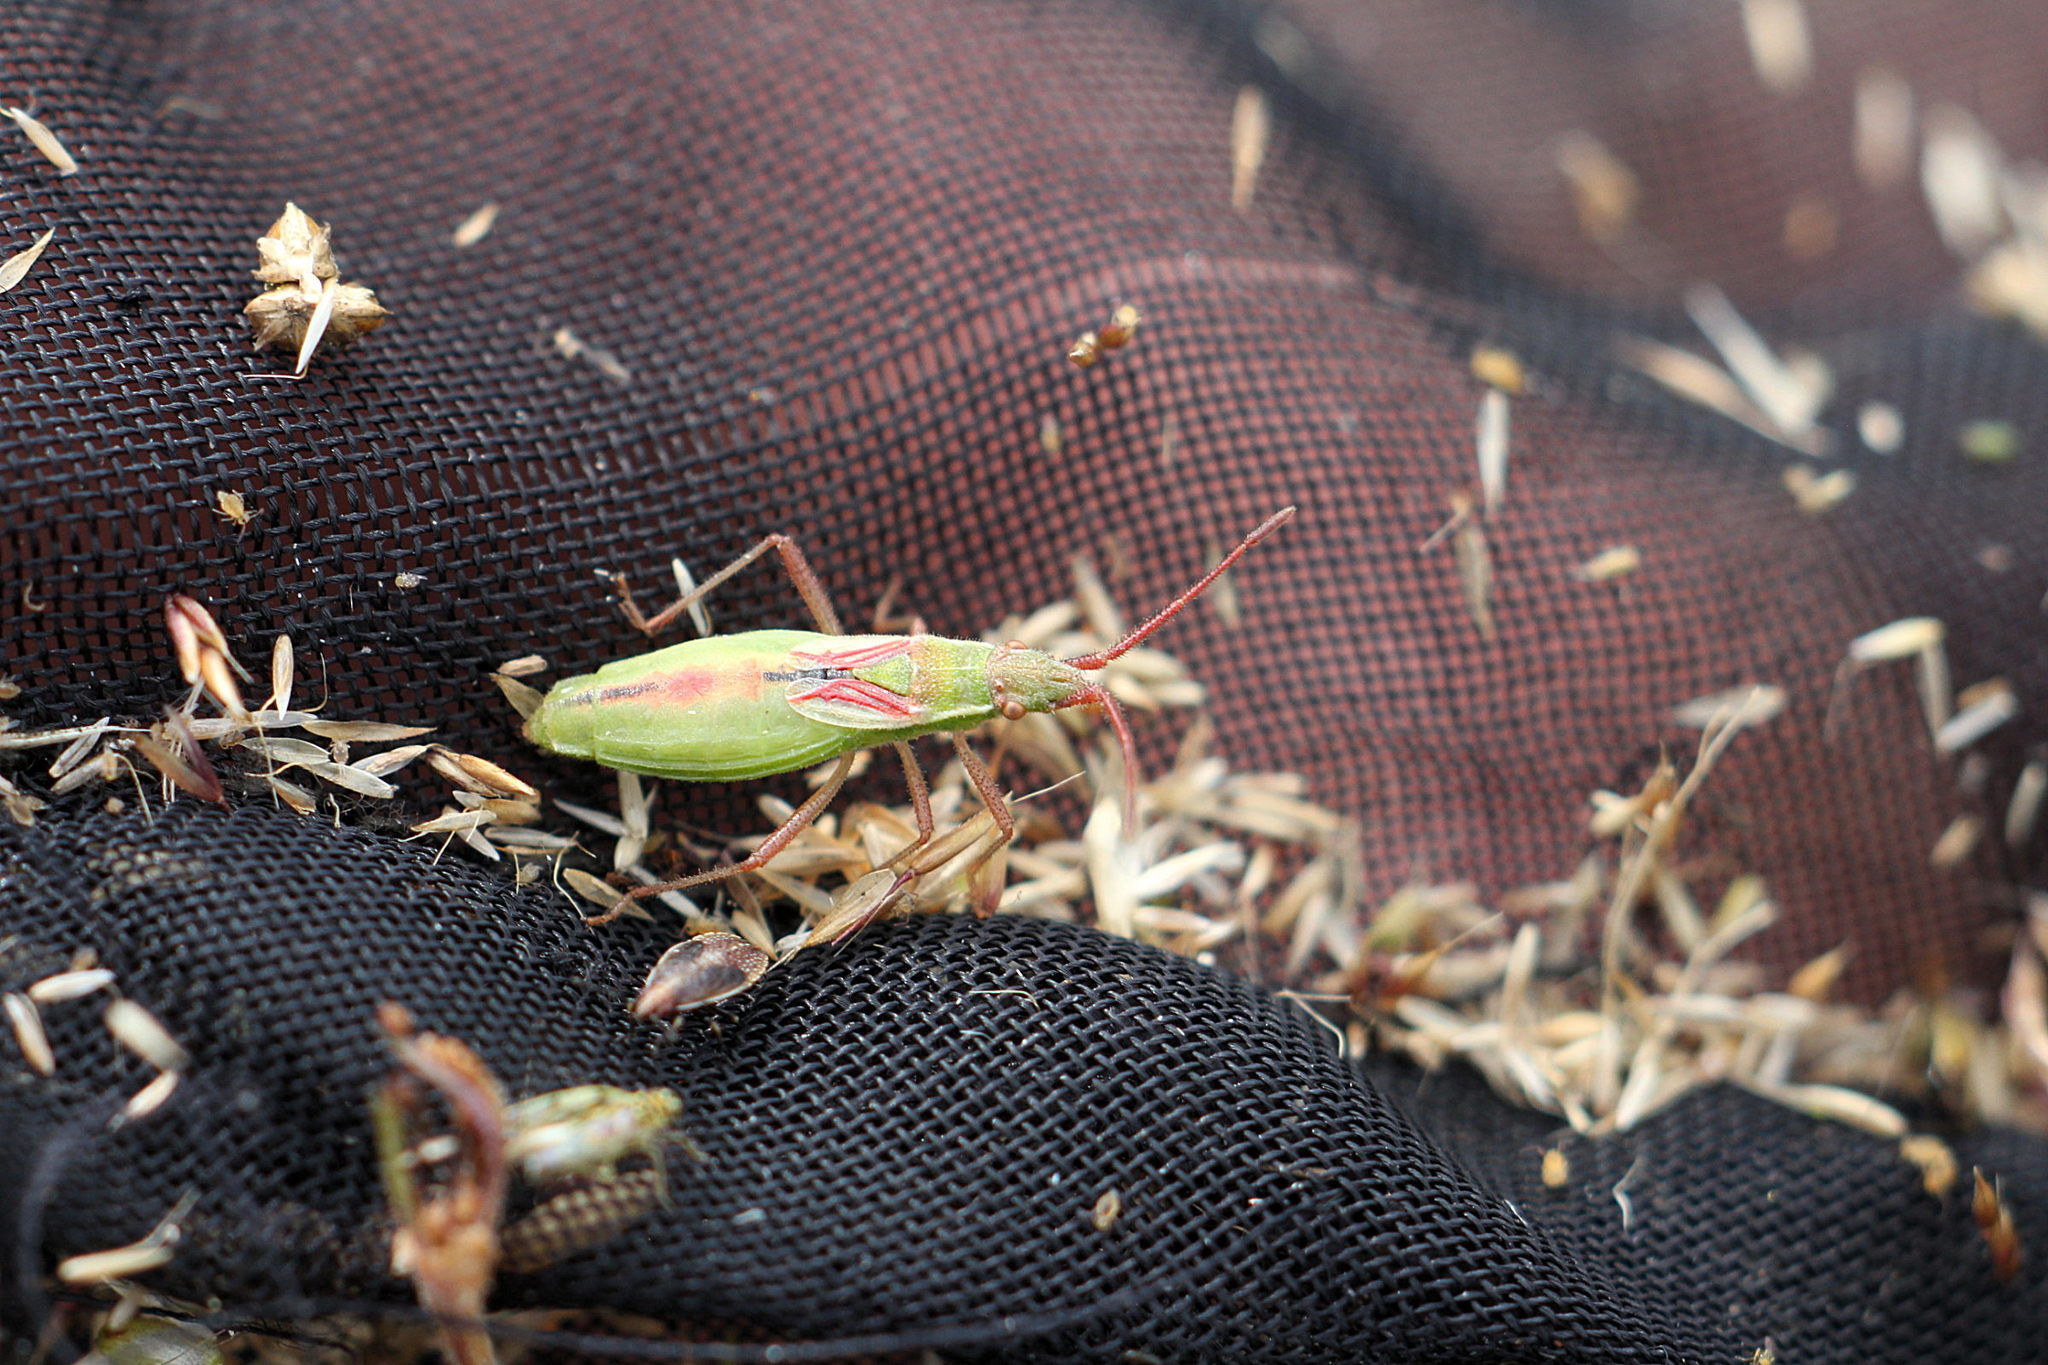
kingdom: Animalia
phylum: Arthropoda
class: Insecta
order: Hemiptera
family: Rhopalidae
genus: Myrmus
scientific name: Myrmus miriformis
